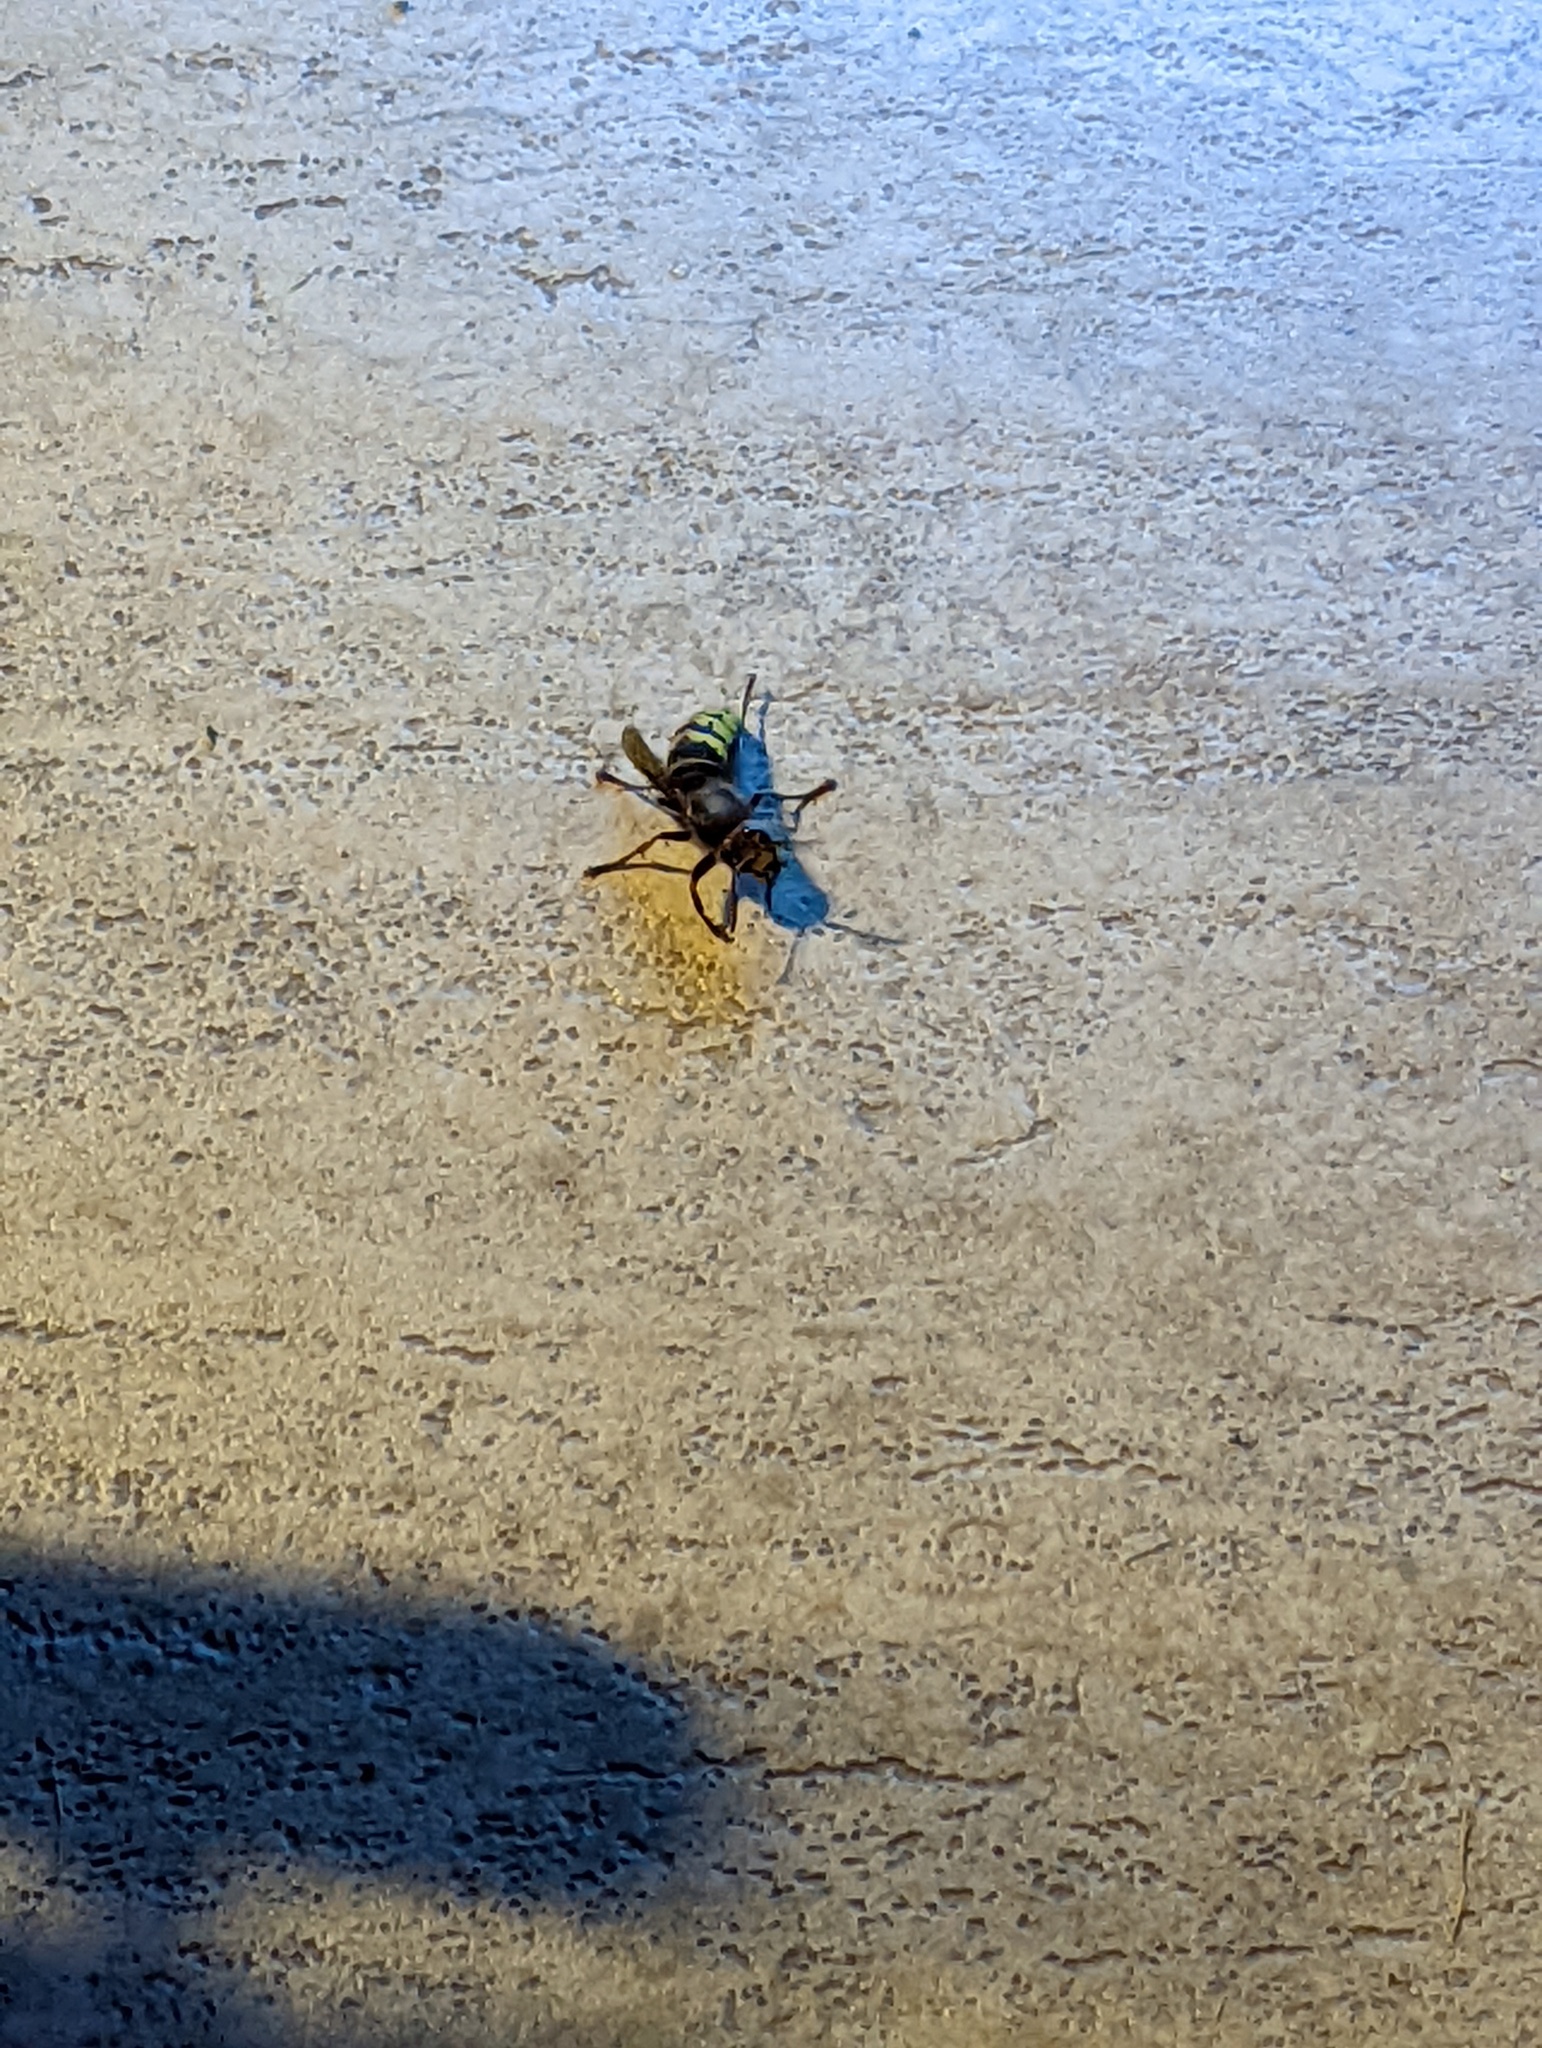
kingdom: Animalia
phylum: Arthropoda
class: Insecta
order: Hymenoptera
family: Vespidae
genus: Vespa
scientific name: Vespa crabro
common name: Hornet
